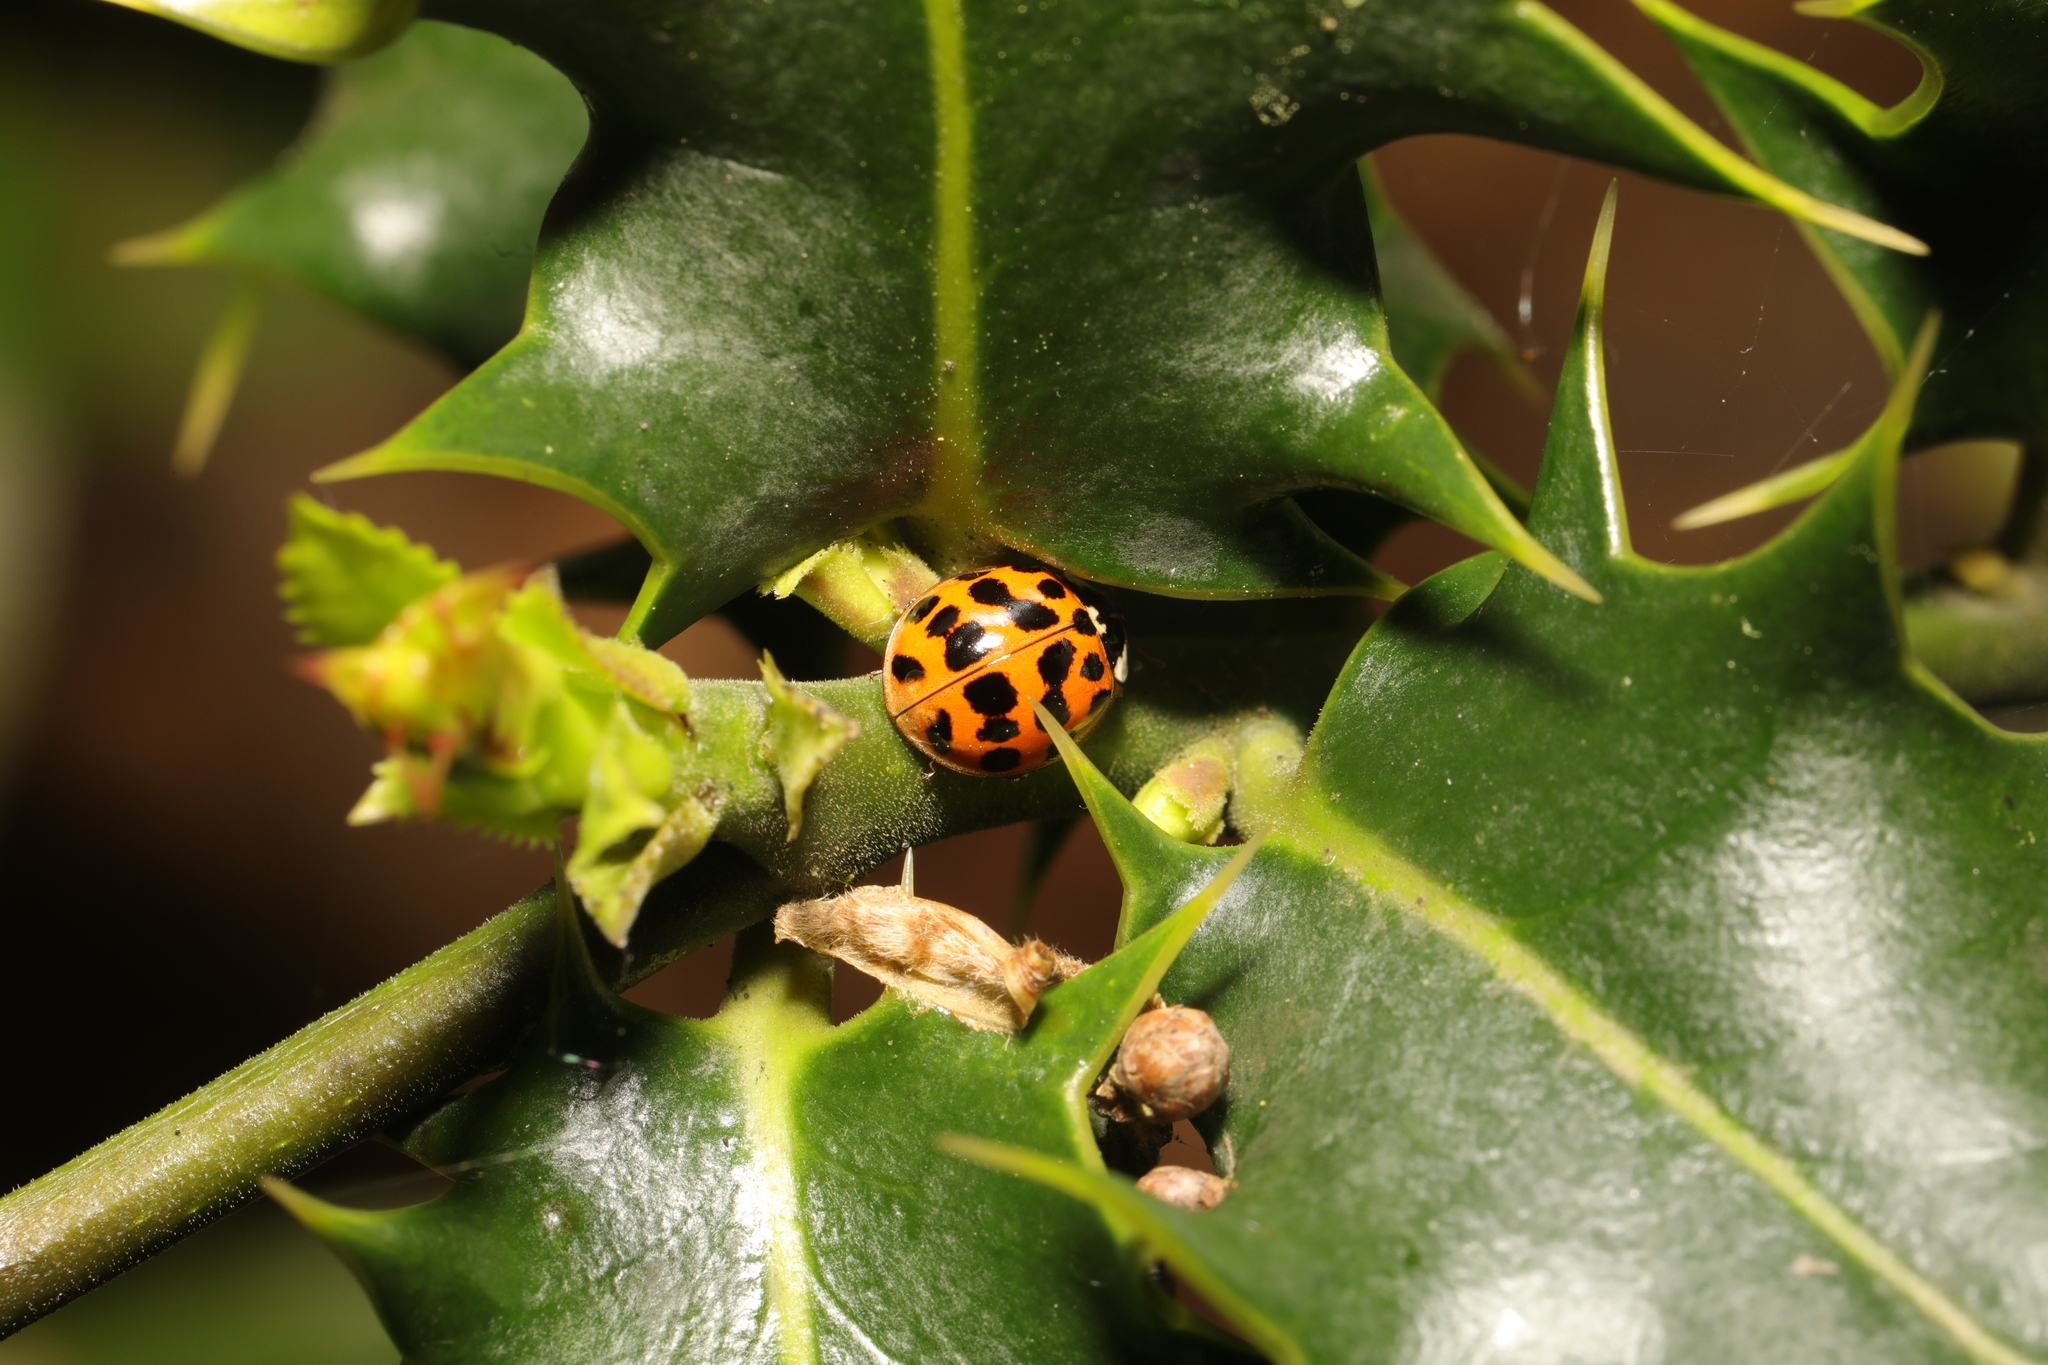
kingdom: Animalia
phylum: Arthropoda
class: Insecta
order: Coleoptera
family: Coccinellidae
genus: Harmonia
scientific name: Harmonia axyridis
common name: Harlequin ladybird
